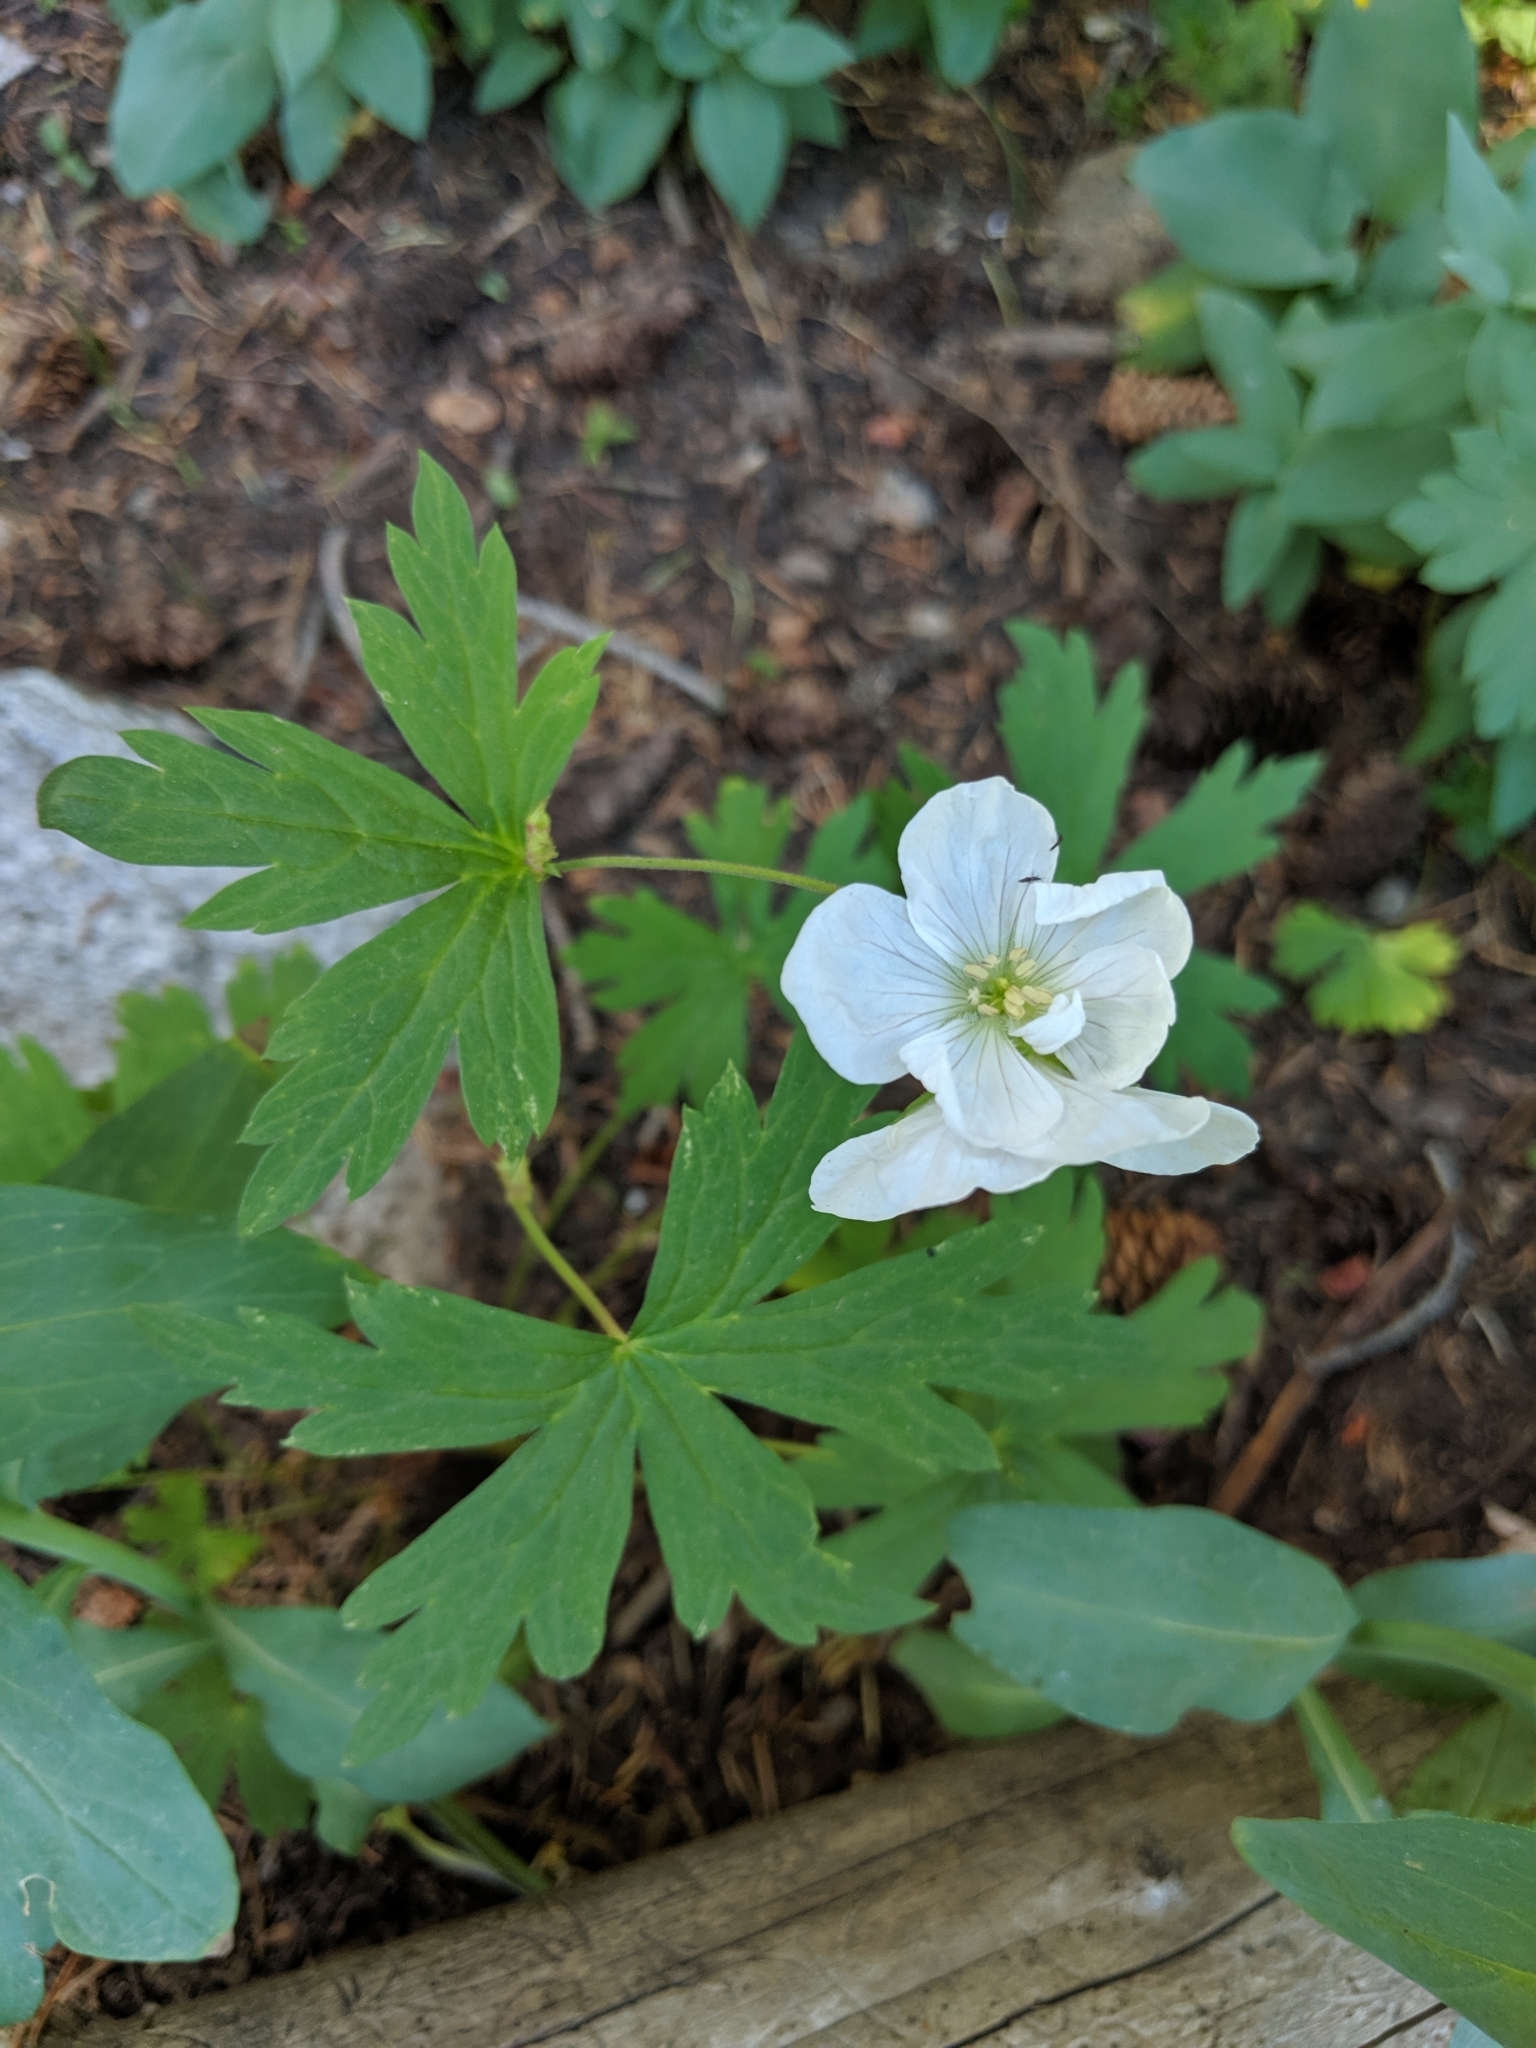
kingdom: Plantae
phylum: Tracheophyta
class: Magnoliopsida
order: Geraniales
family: Geraniaceae
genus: Geranium
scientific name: Geranium richardsonii
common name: Richardson's crane's-bill
